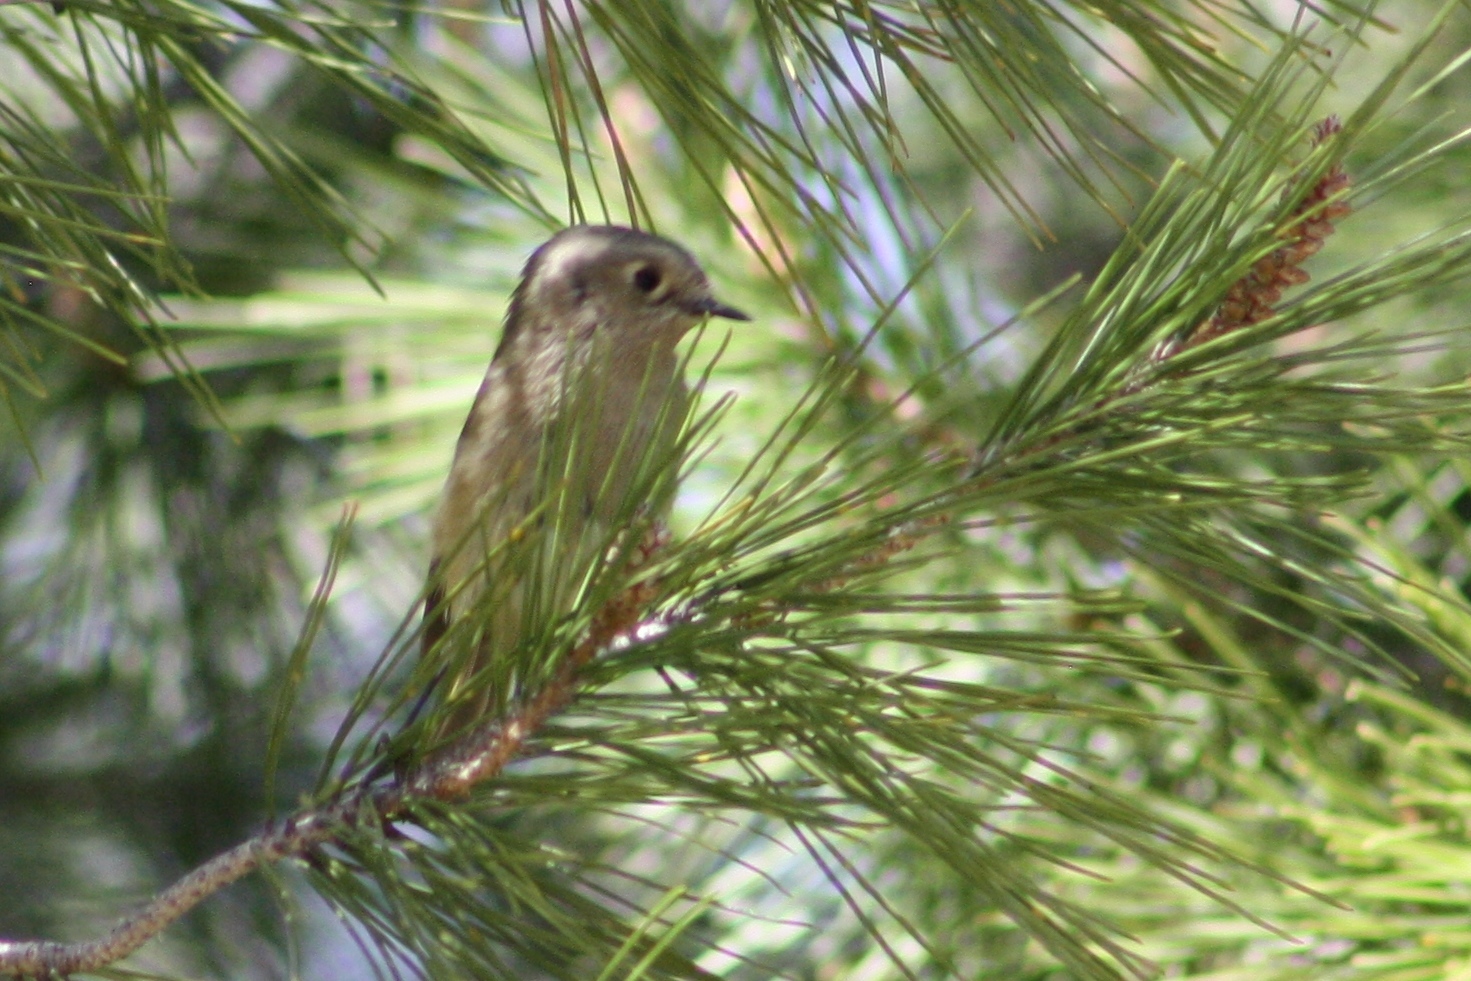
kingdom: Animalia
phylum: Chordata
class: Aves
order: Passeriformes
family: Regulidae
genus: Regulus
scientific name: Regulus calendula
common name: Ruby-crowned kinglet
